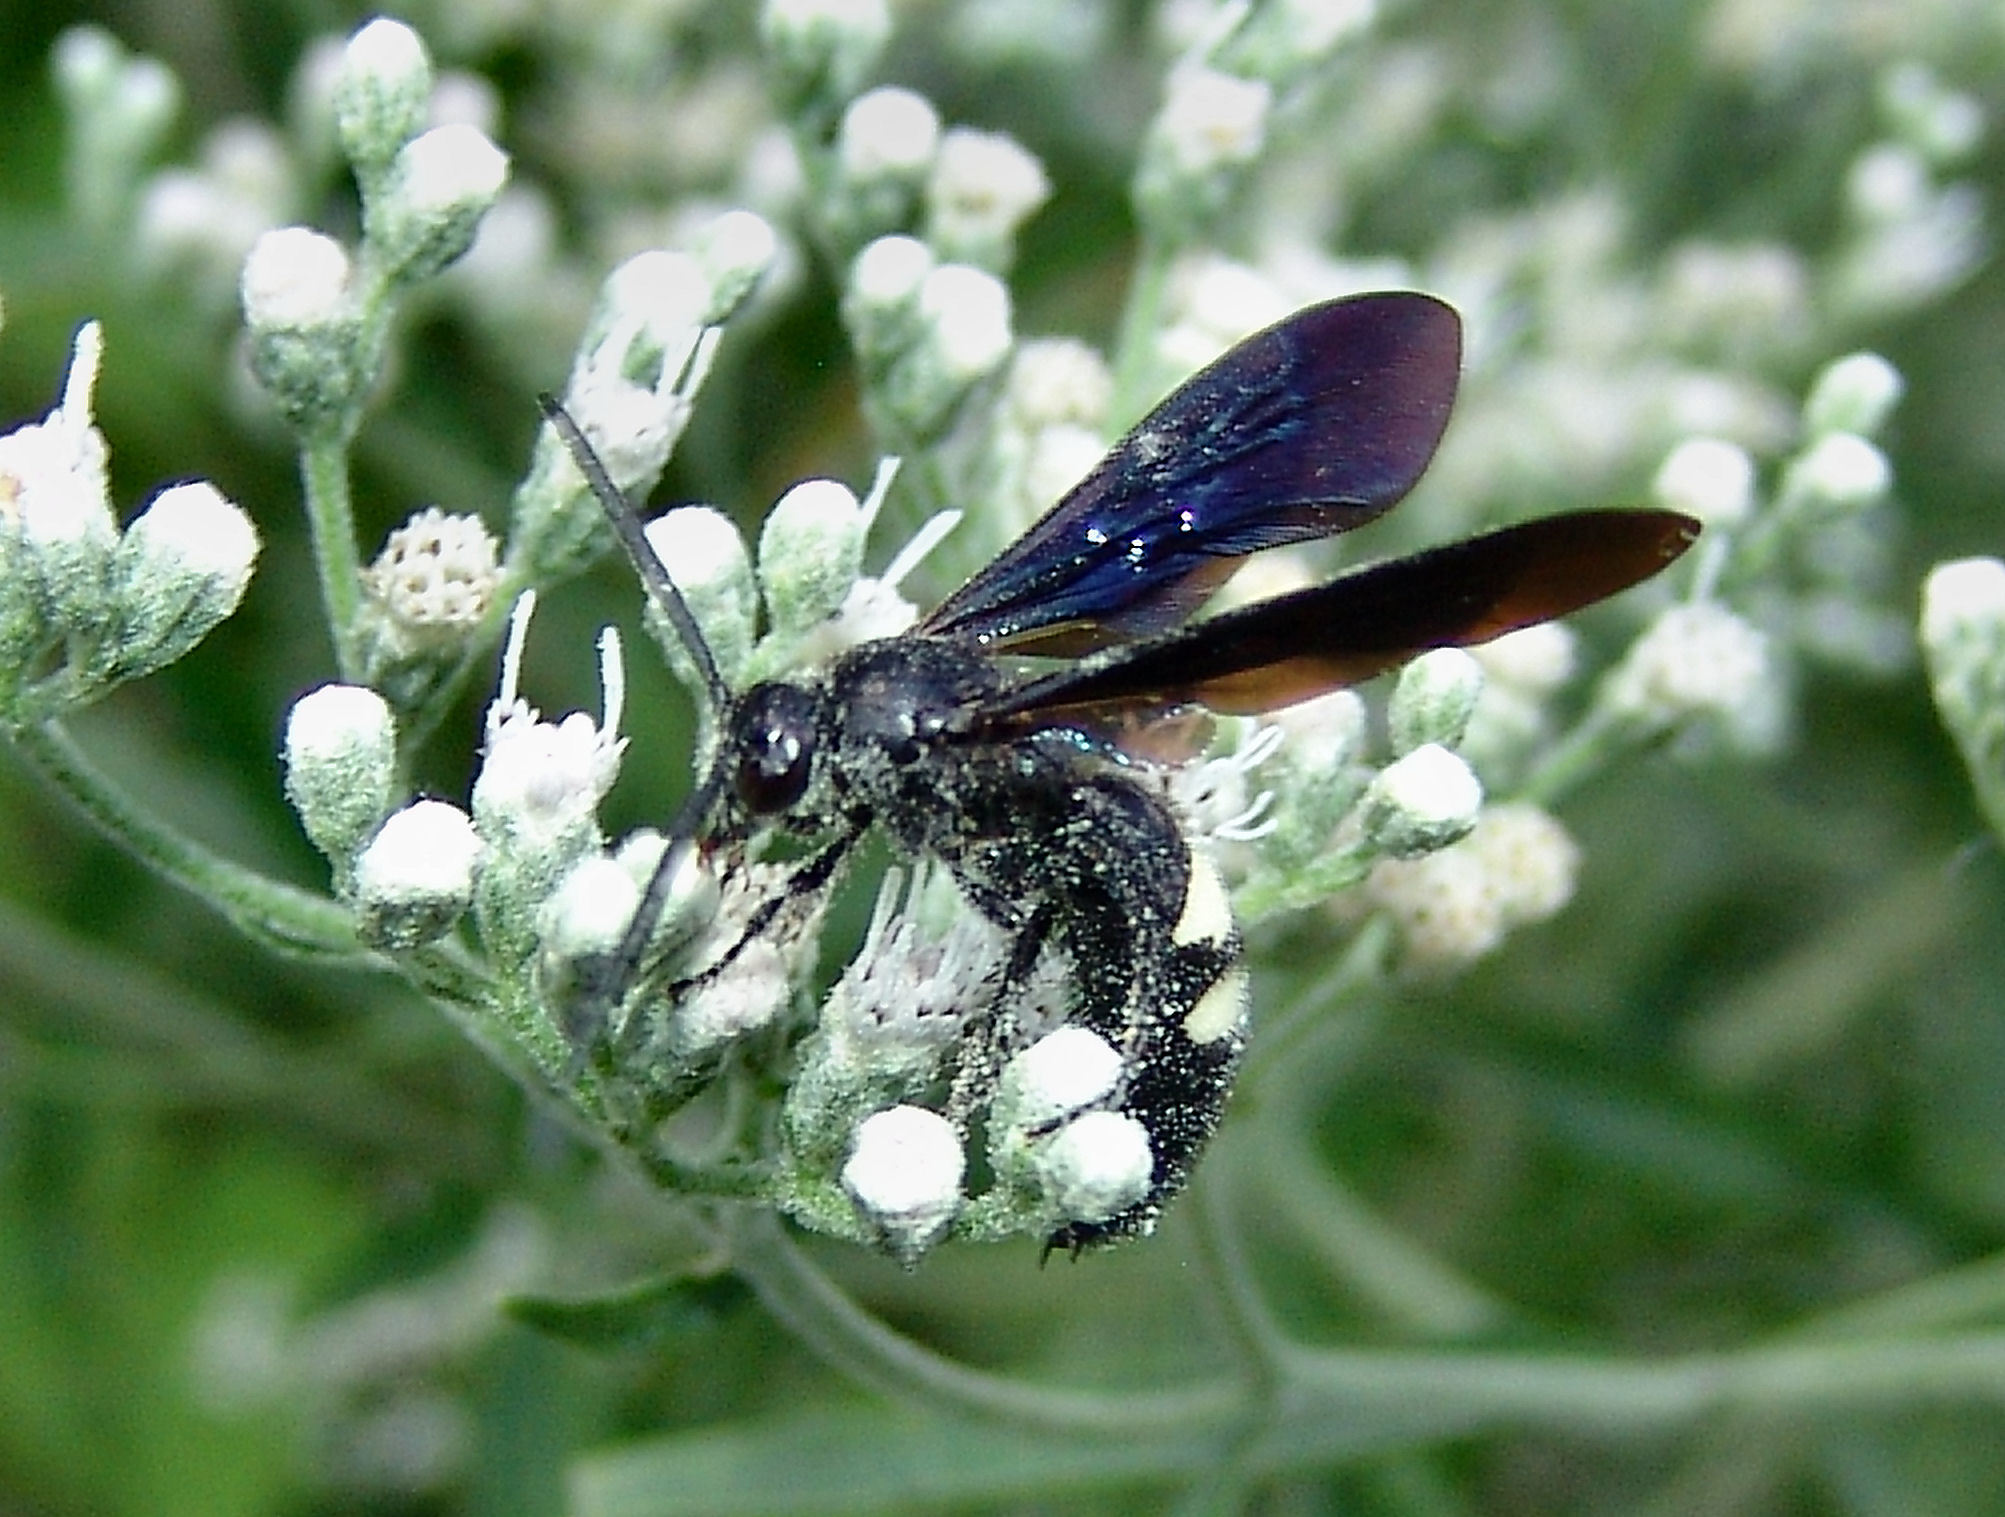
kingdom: Animalia
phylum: Arthropoda
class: Insecta
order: Hymenoptera
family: Scoliidae
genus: Scolia
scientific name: Scolia bicincta
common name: Double-banded scoliid wasp
